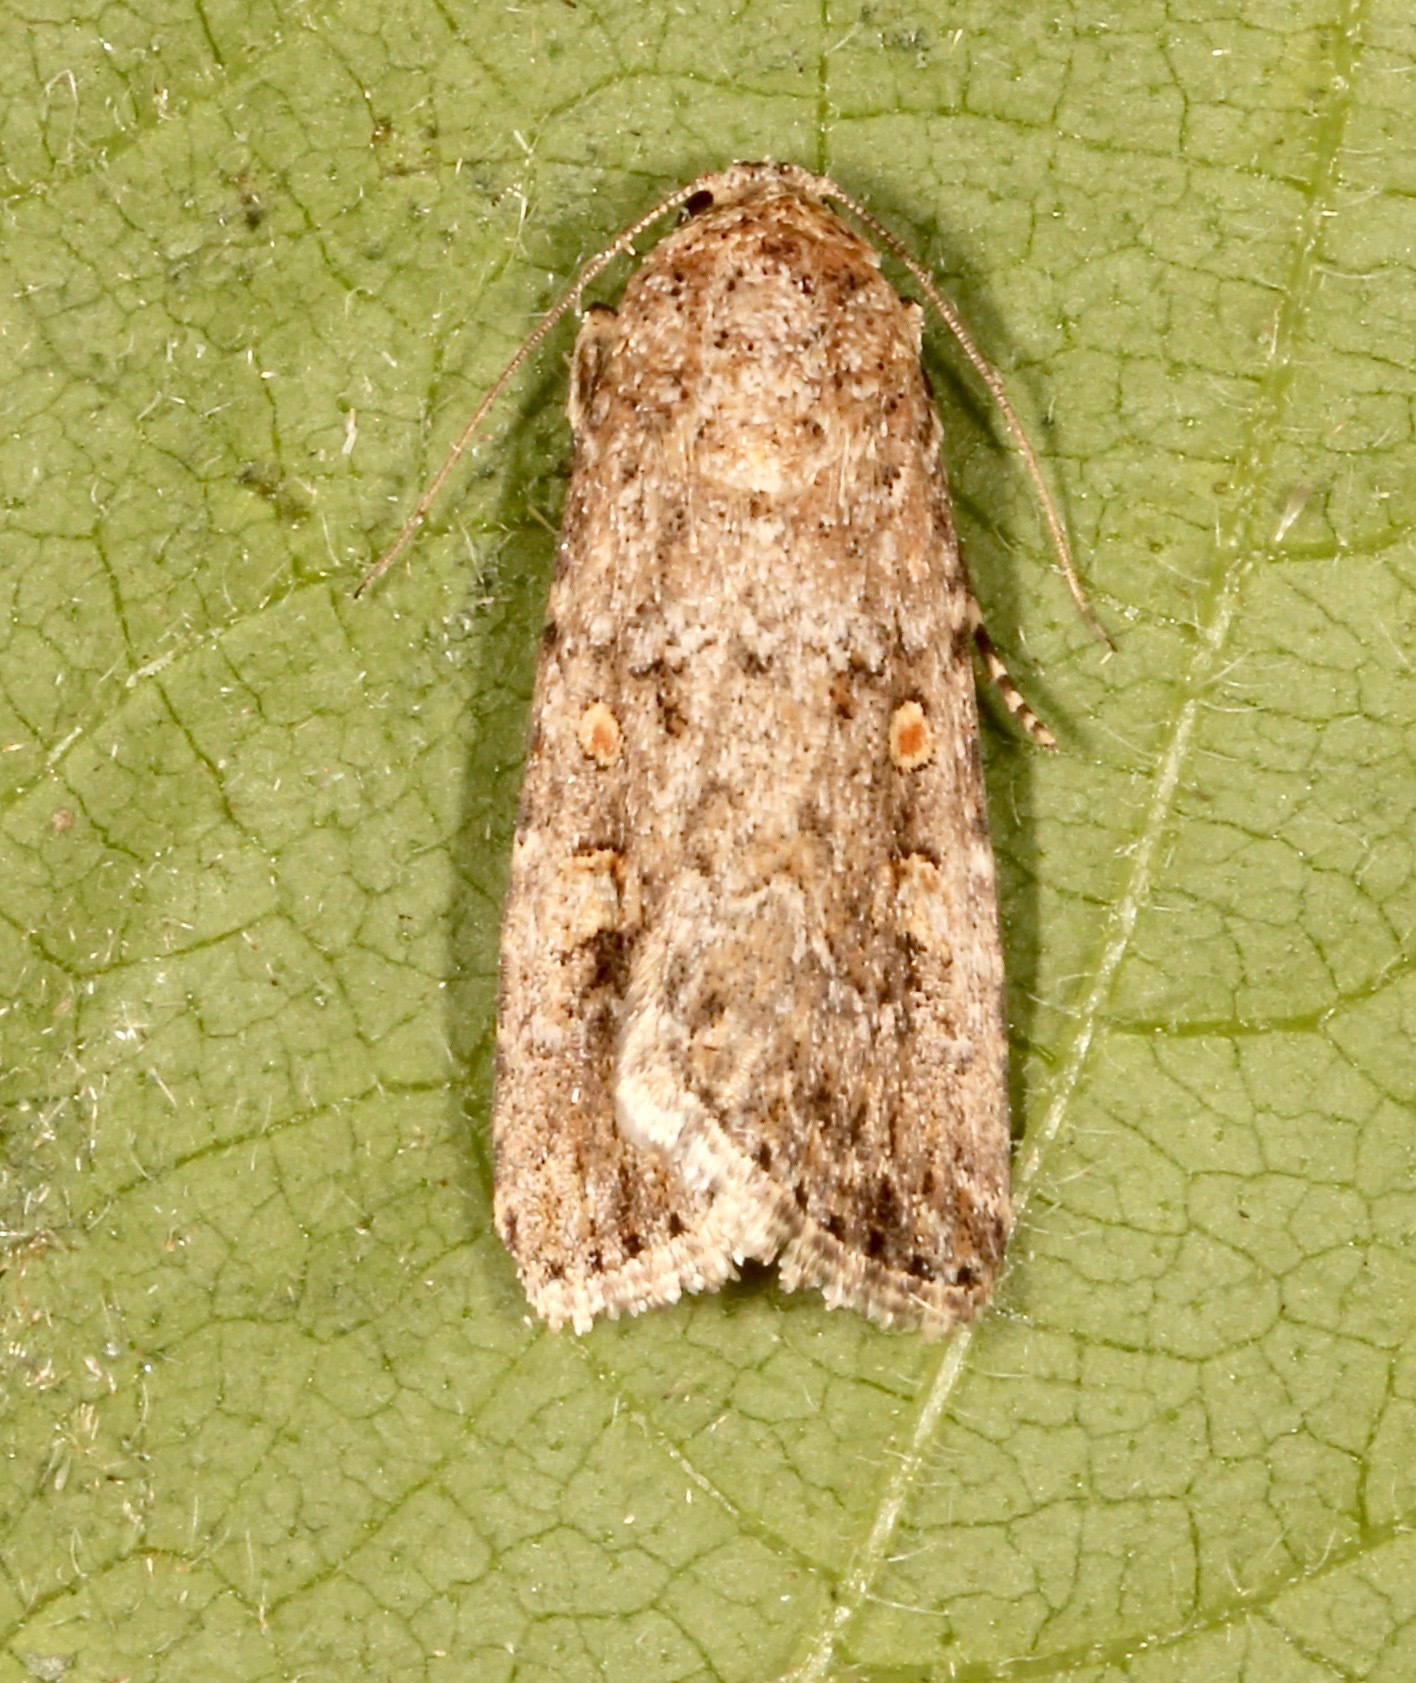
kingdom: Animalia
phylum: Arthropoda
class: Insecta
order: Lepidoptera
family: Noctuidae
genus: Spodoptera
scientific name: Spodoptera exigua
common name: Beet armyworm
